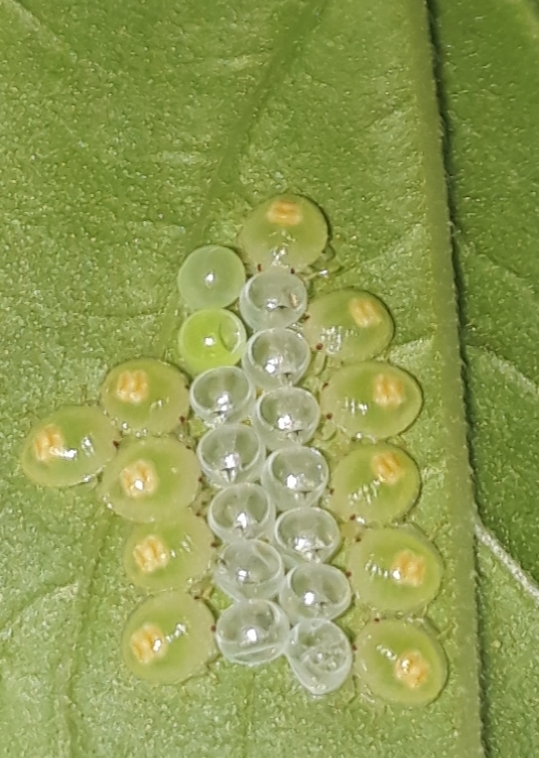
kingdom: Animalia
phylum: Arthropoda
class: Insecta
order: Hemiptera
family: Pentatomidae
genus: Edessa
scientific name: Edessa meditabunda
